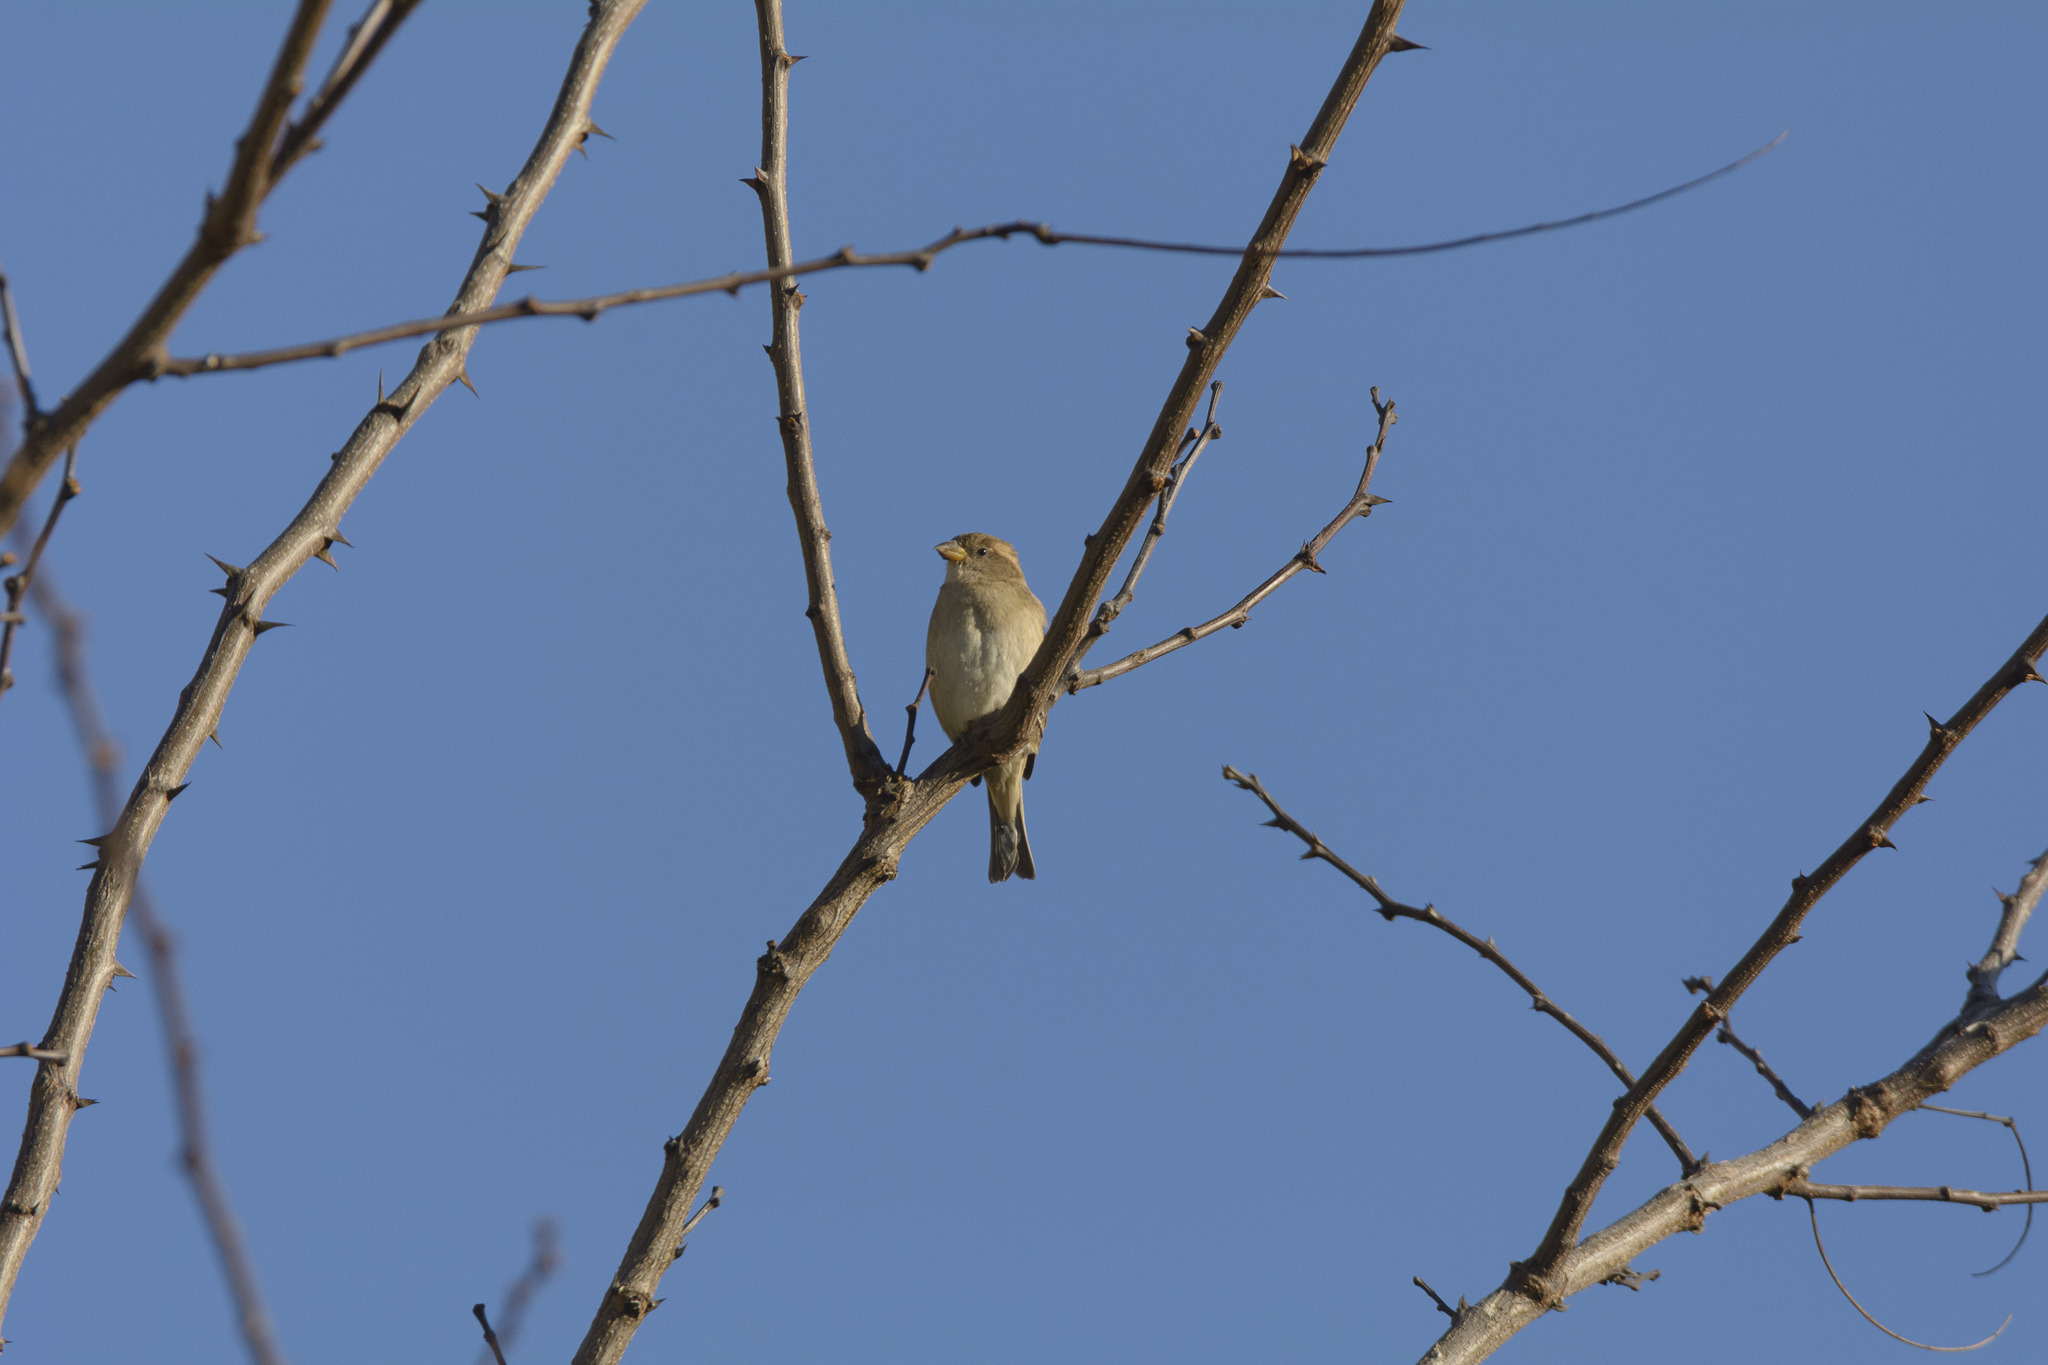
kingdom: Animalia
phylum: Chordata
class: Aves
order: Passeriformes
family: Passeridae
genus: Passer
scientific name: Passer italiae
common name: Italian sparrow
